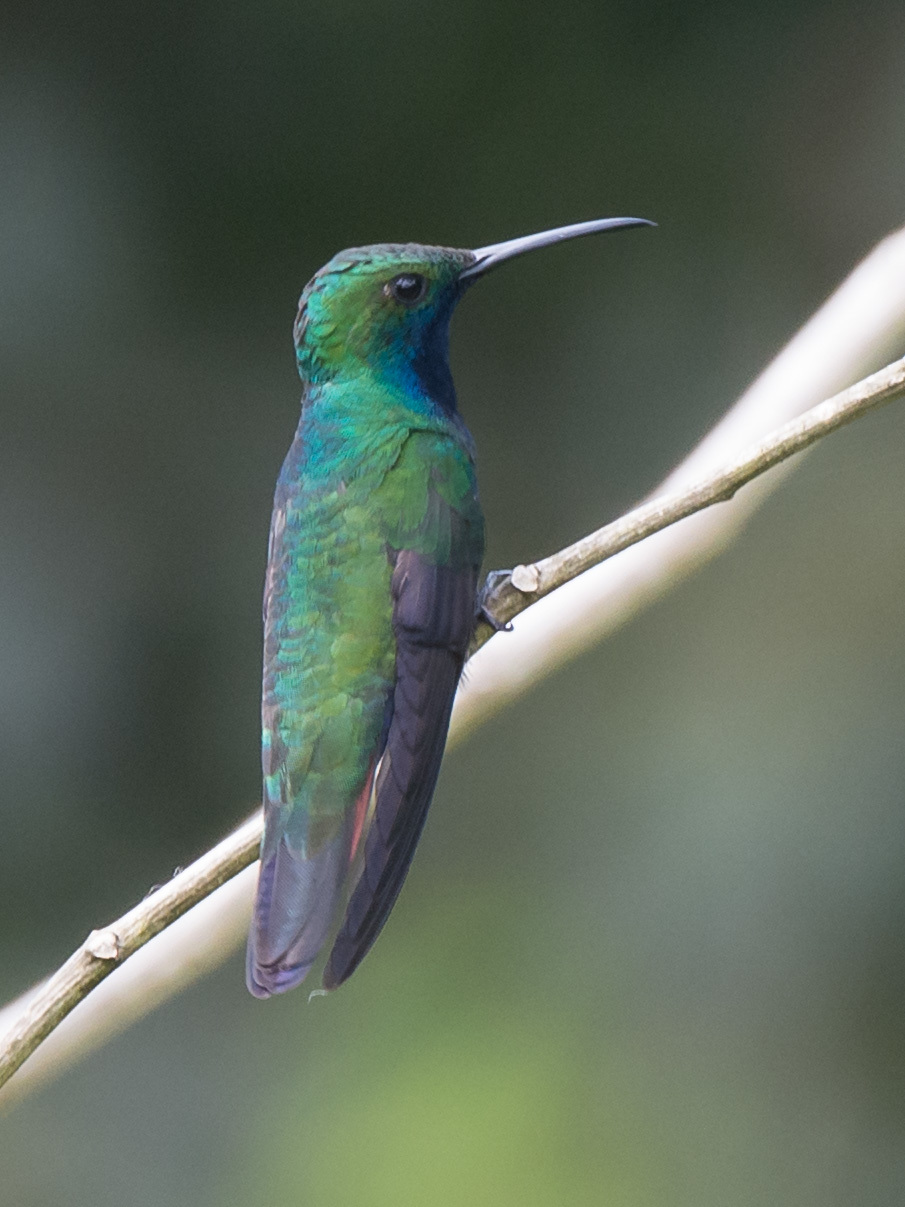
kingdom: Animalia
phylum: Chordata
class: Aves
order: Apodiformes
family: Trochilidae
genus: Anthracothorax
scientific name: Anthracothorax nigricollis
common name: Black-throated mango
